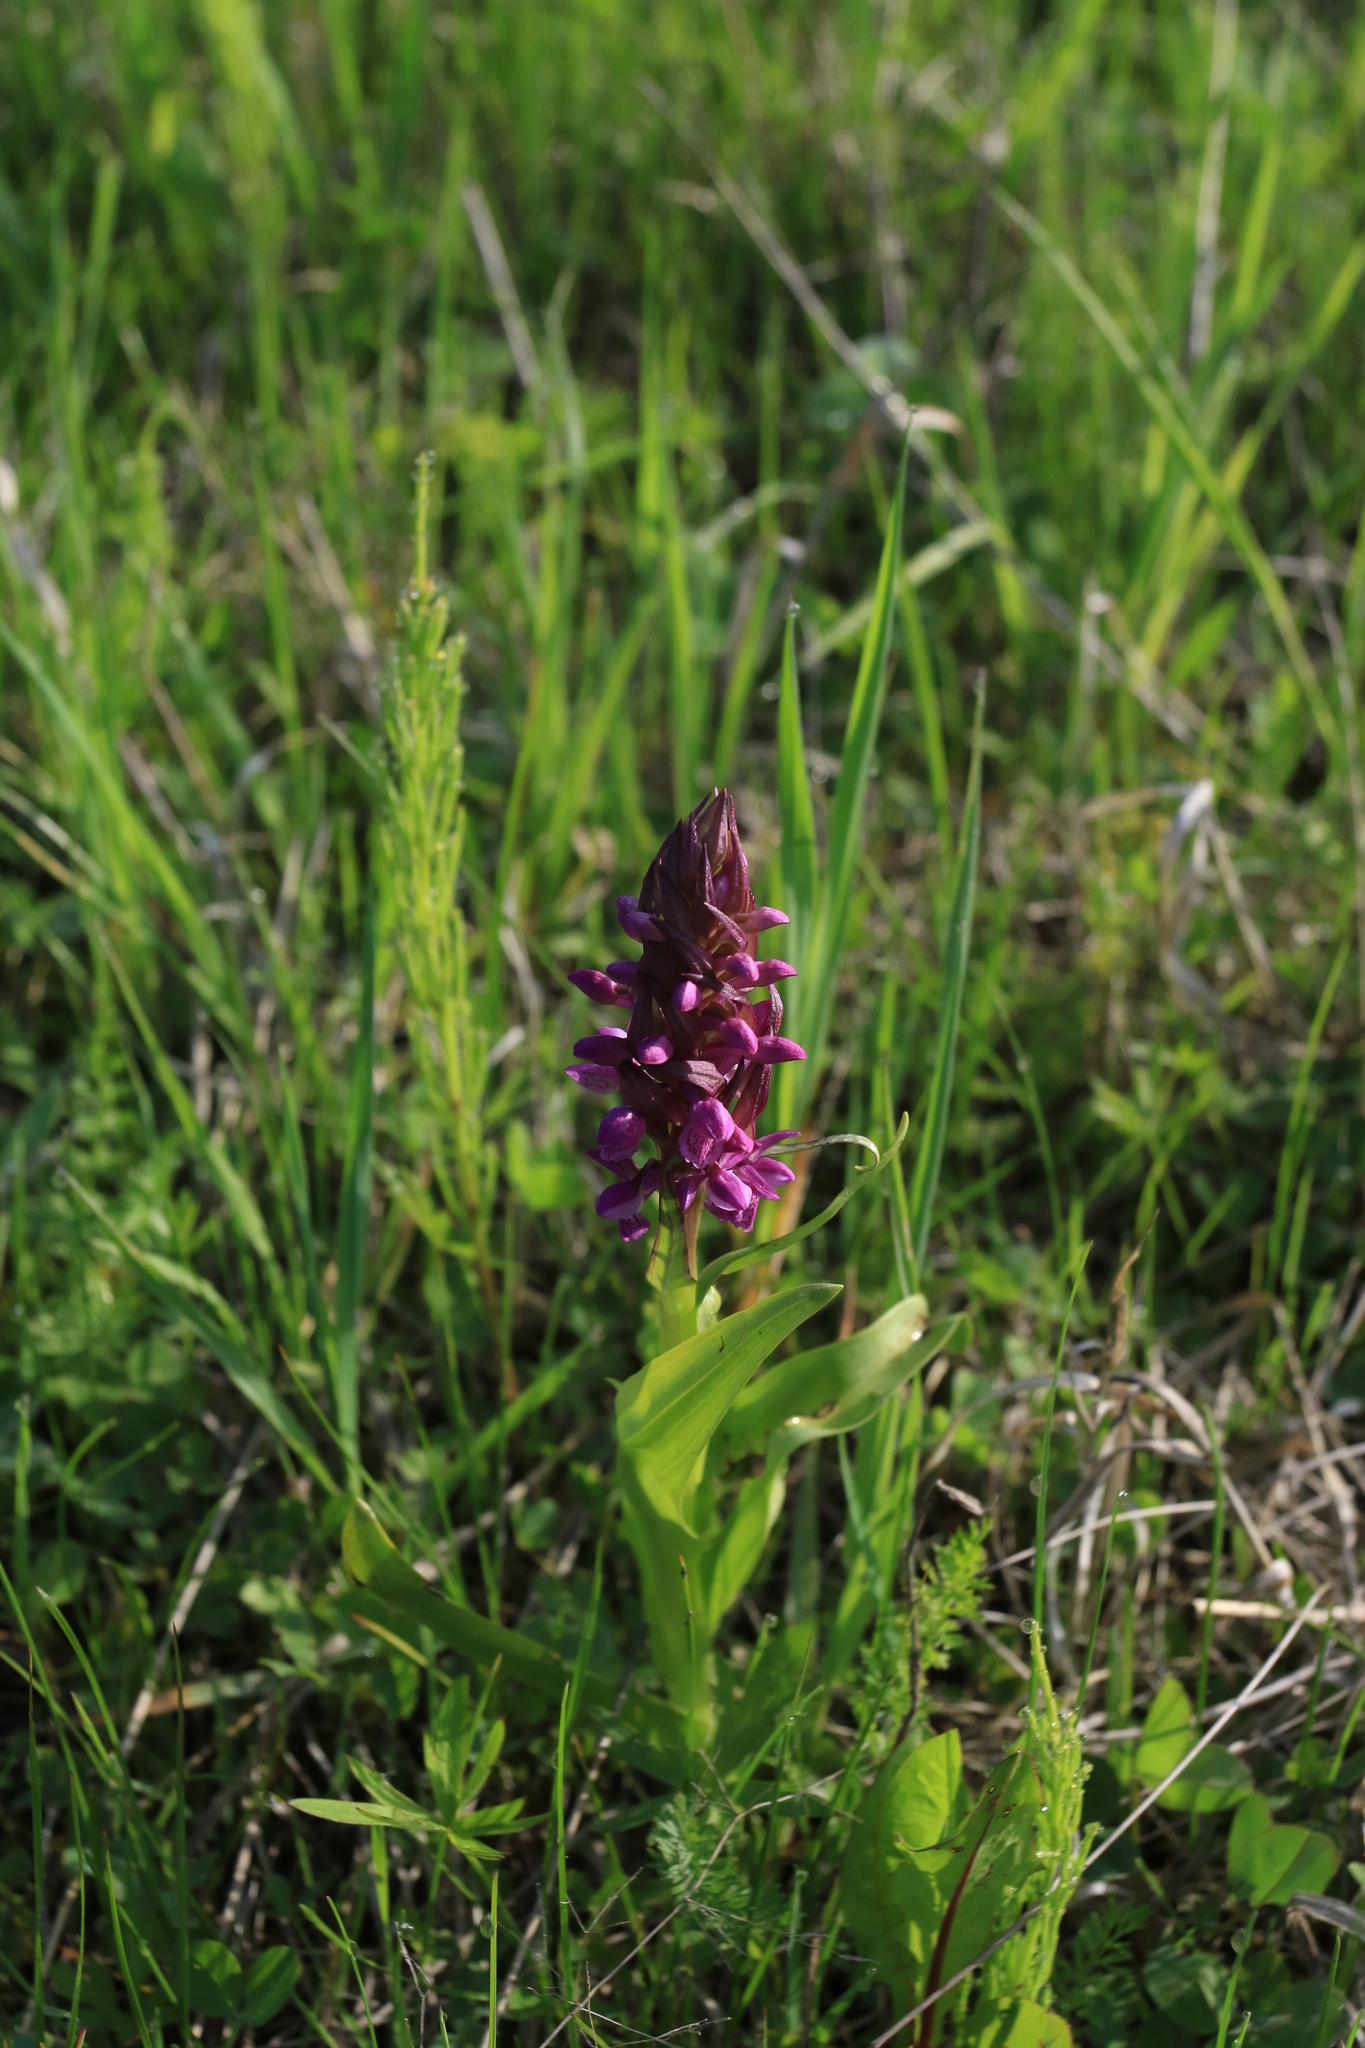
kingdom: Plantae
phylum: Tracheophyta
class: Liliopsida
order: Asparagales
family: Orchidaceae
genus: Dactylorhiza
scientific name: Dactylorhiza incarnata
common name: Early marsh-orchid
